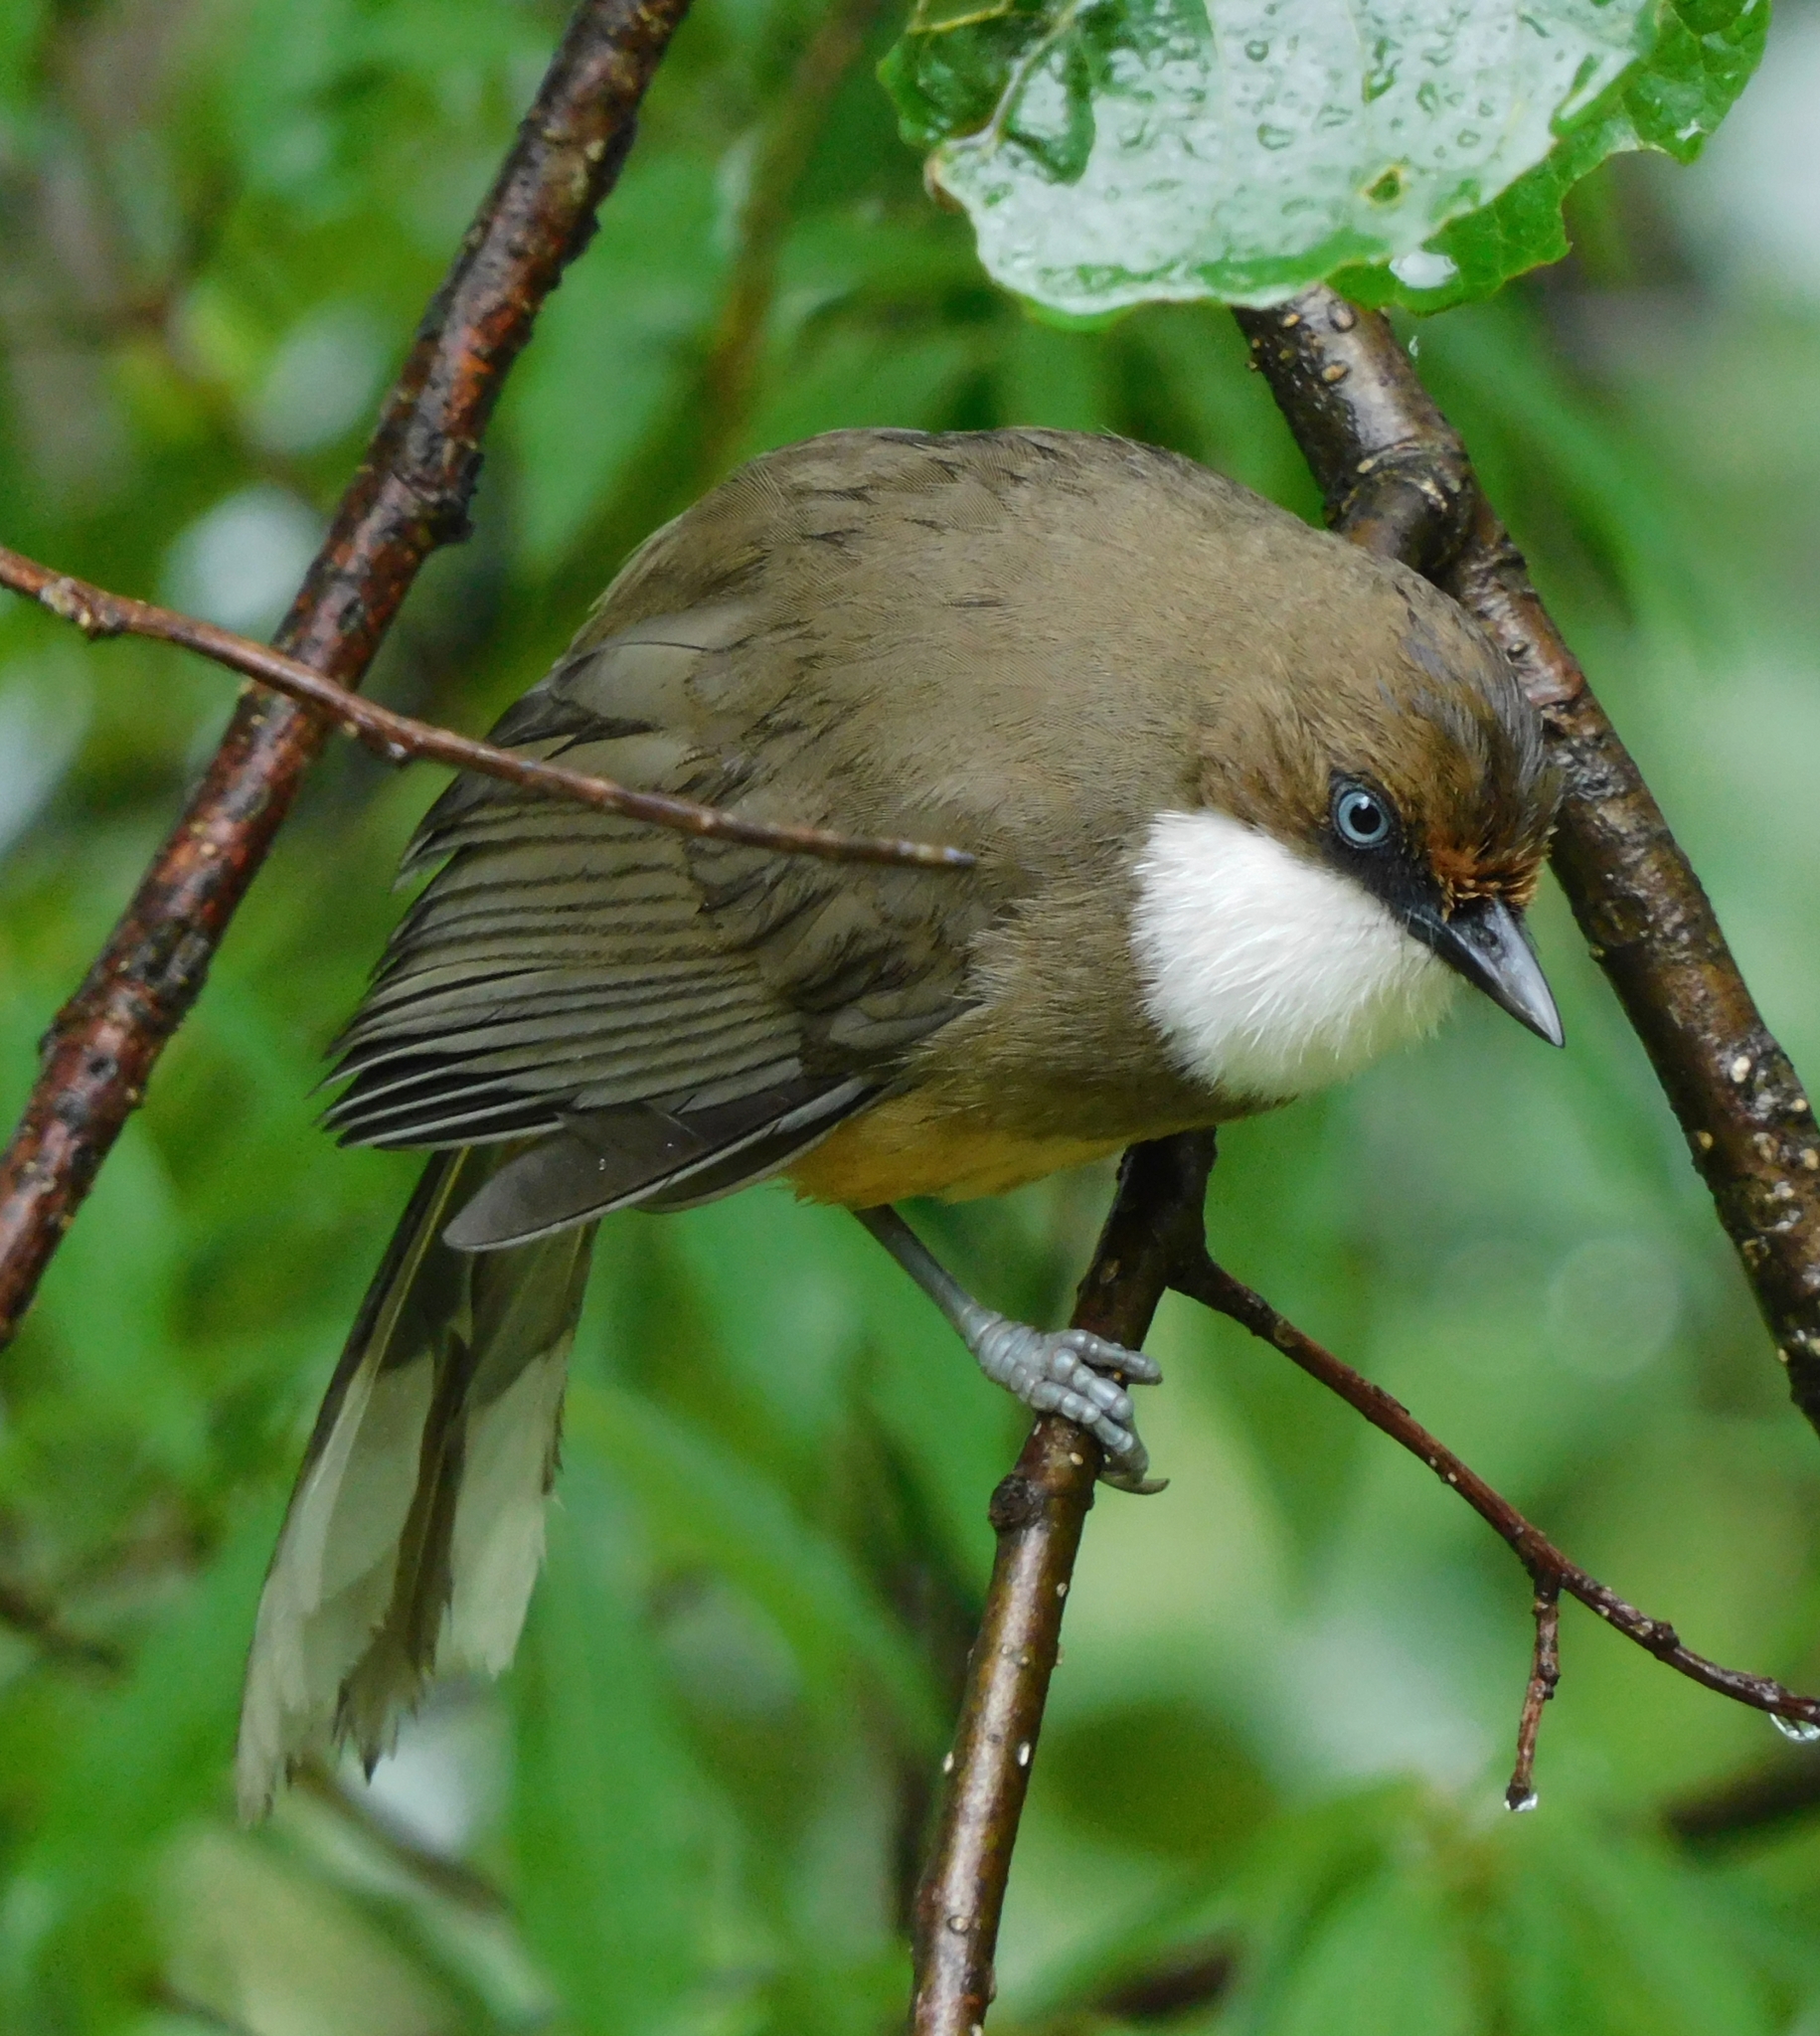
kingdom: Animalia
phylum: Chordata
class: Aves
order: Passeriformes
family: Leiothrichidae
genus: Garrulax
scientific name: Garrulax albogularis
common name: White-throated laughingthrush
